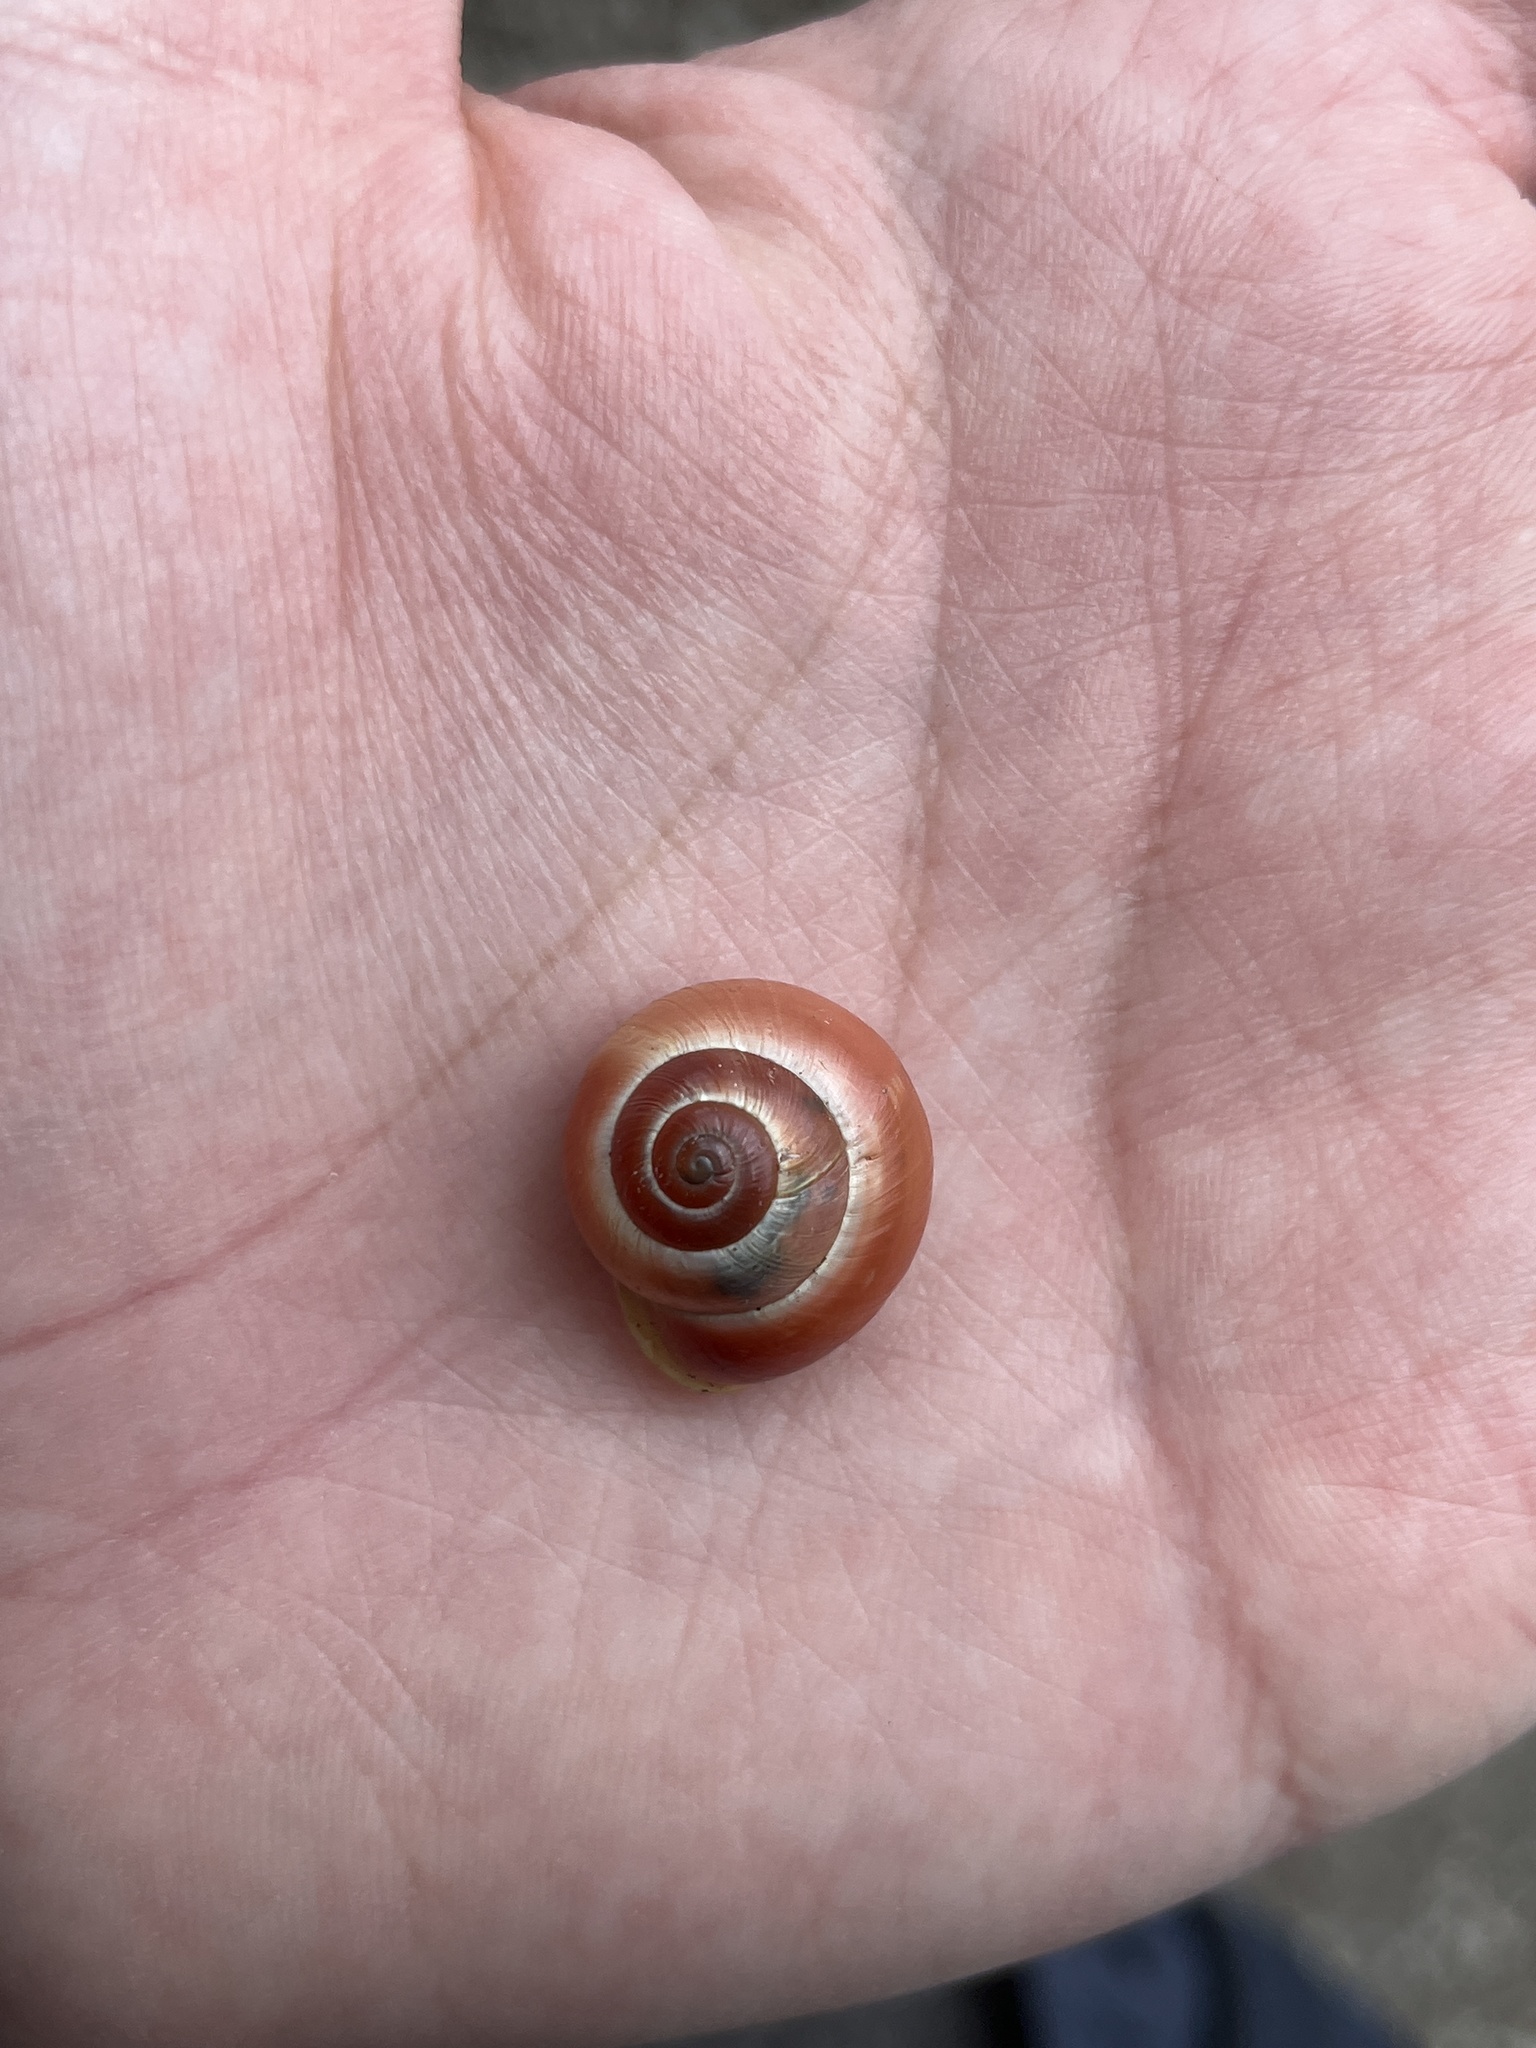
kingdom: Animalia
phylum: Mollusca
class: Gastropoda
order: Stylommatophora
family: Helicidae
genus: Cepaea
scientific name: Cepaea hortensis
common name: White-lip gardensnail
